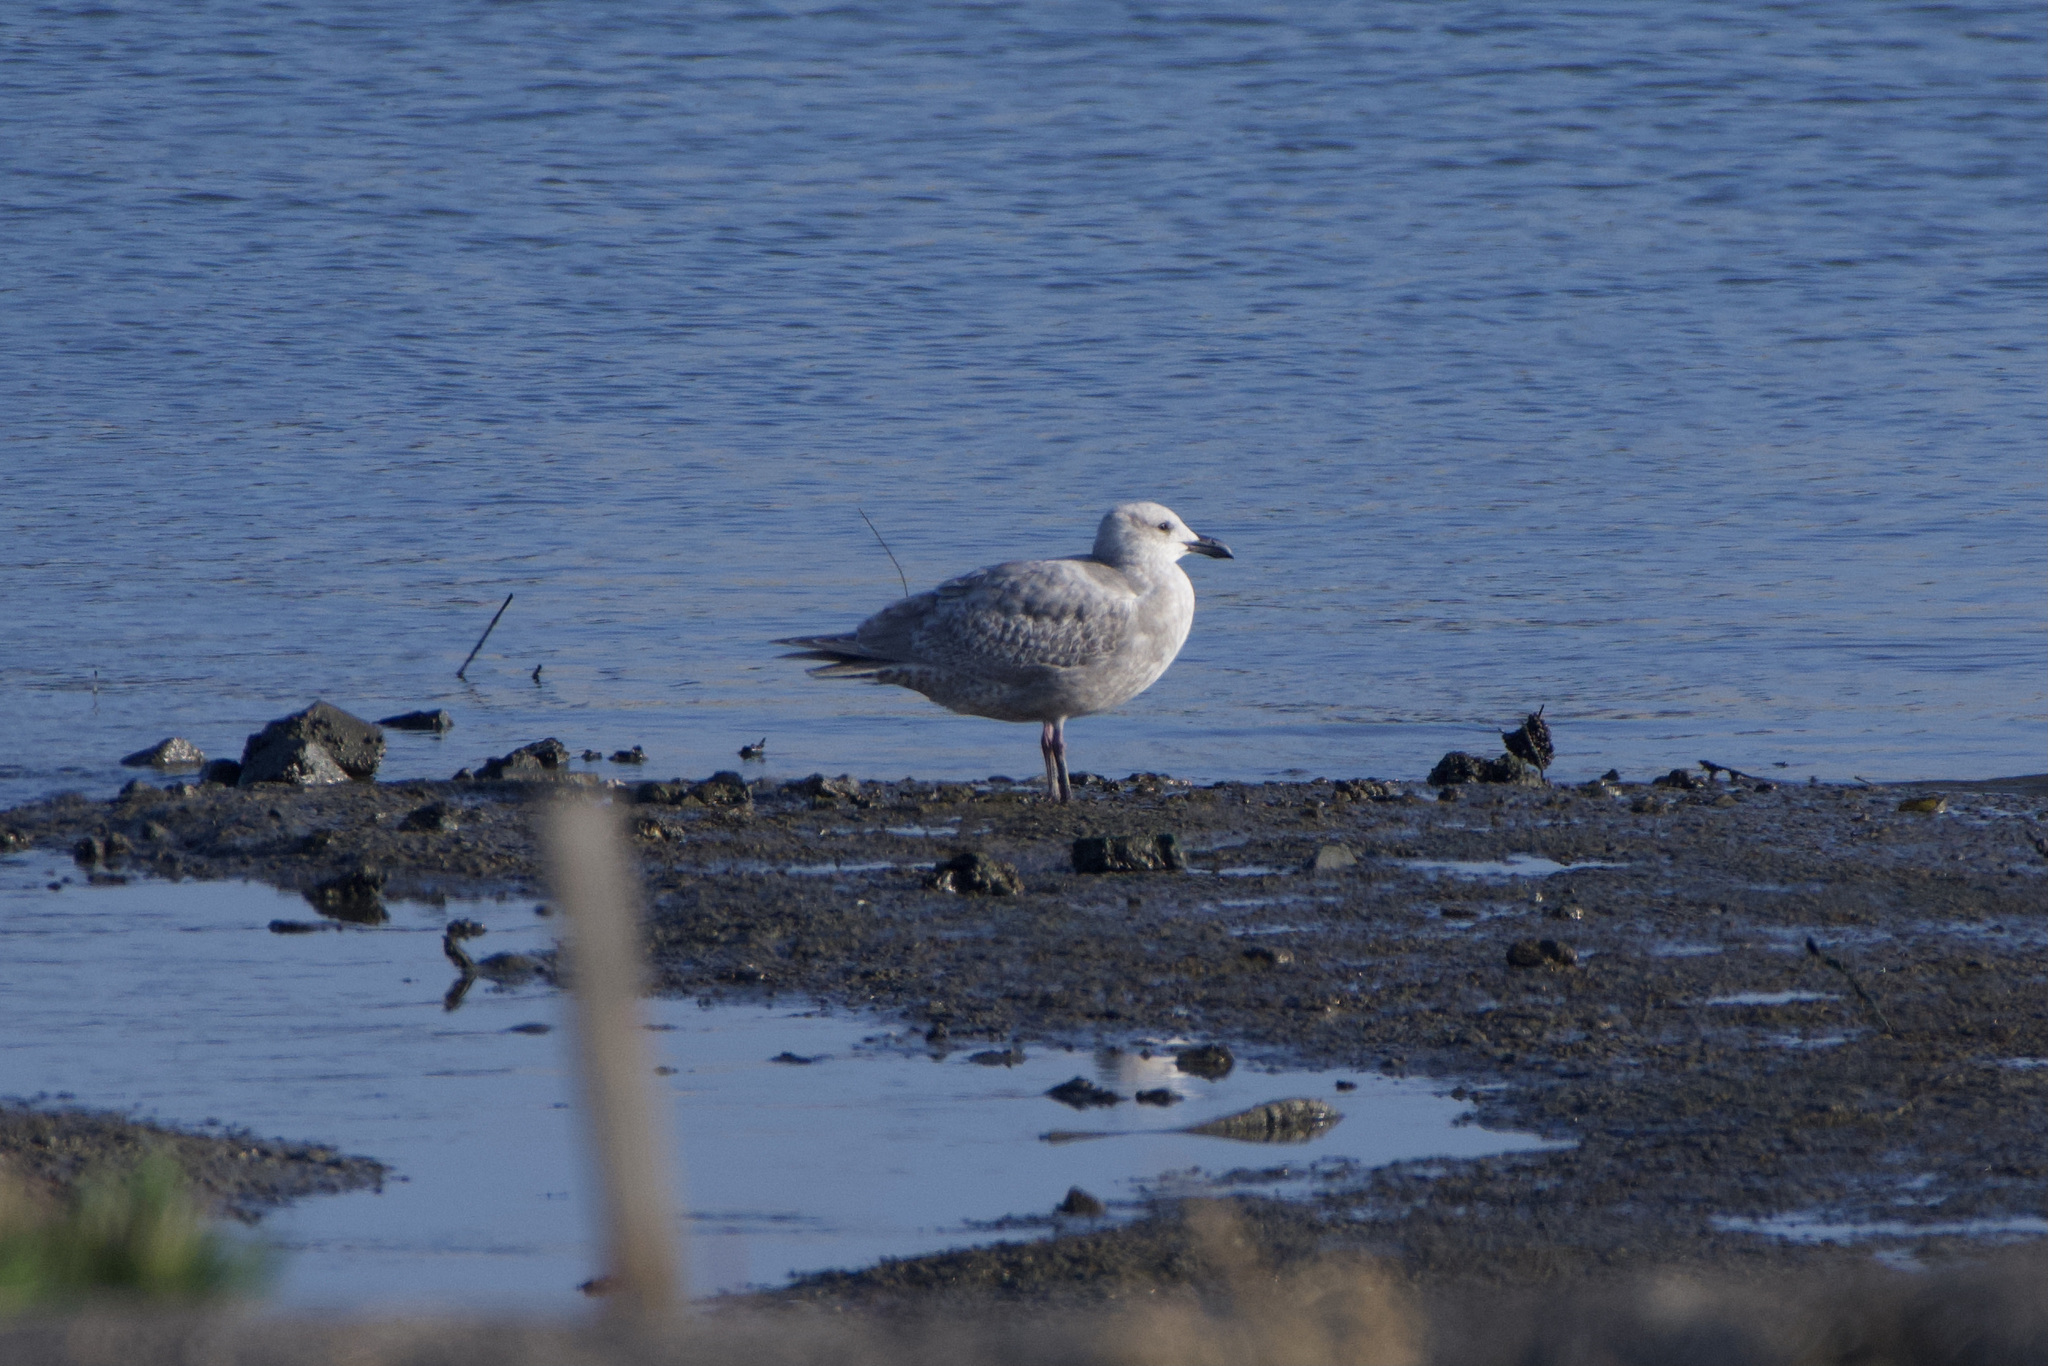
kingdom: Animalia
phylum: Chordata
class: Aves
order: Charadriiformes
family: Laridae
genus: Larus
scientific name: Larus glaucescens
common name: Glaucous-winged gull
